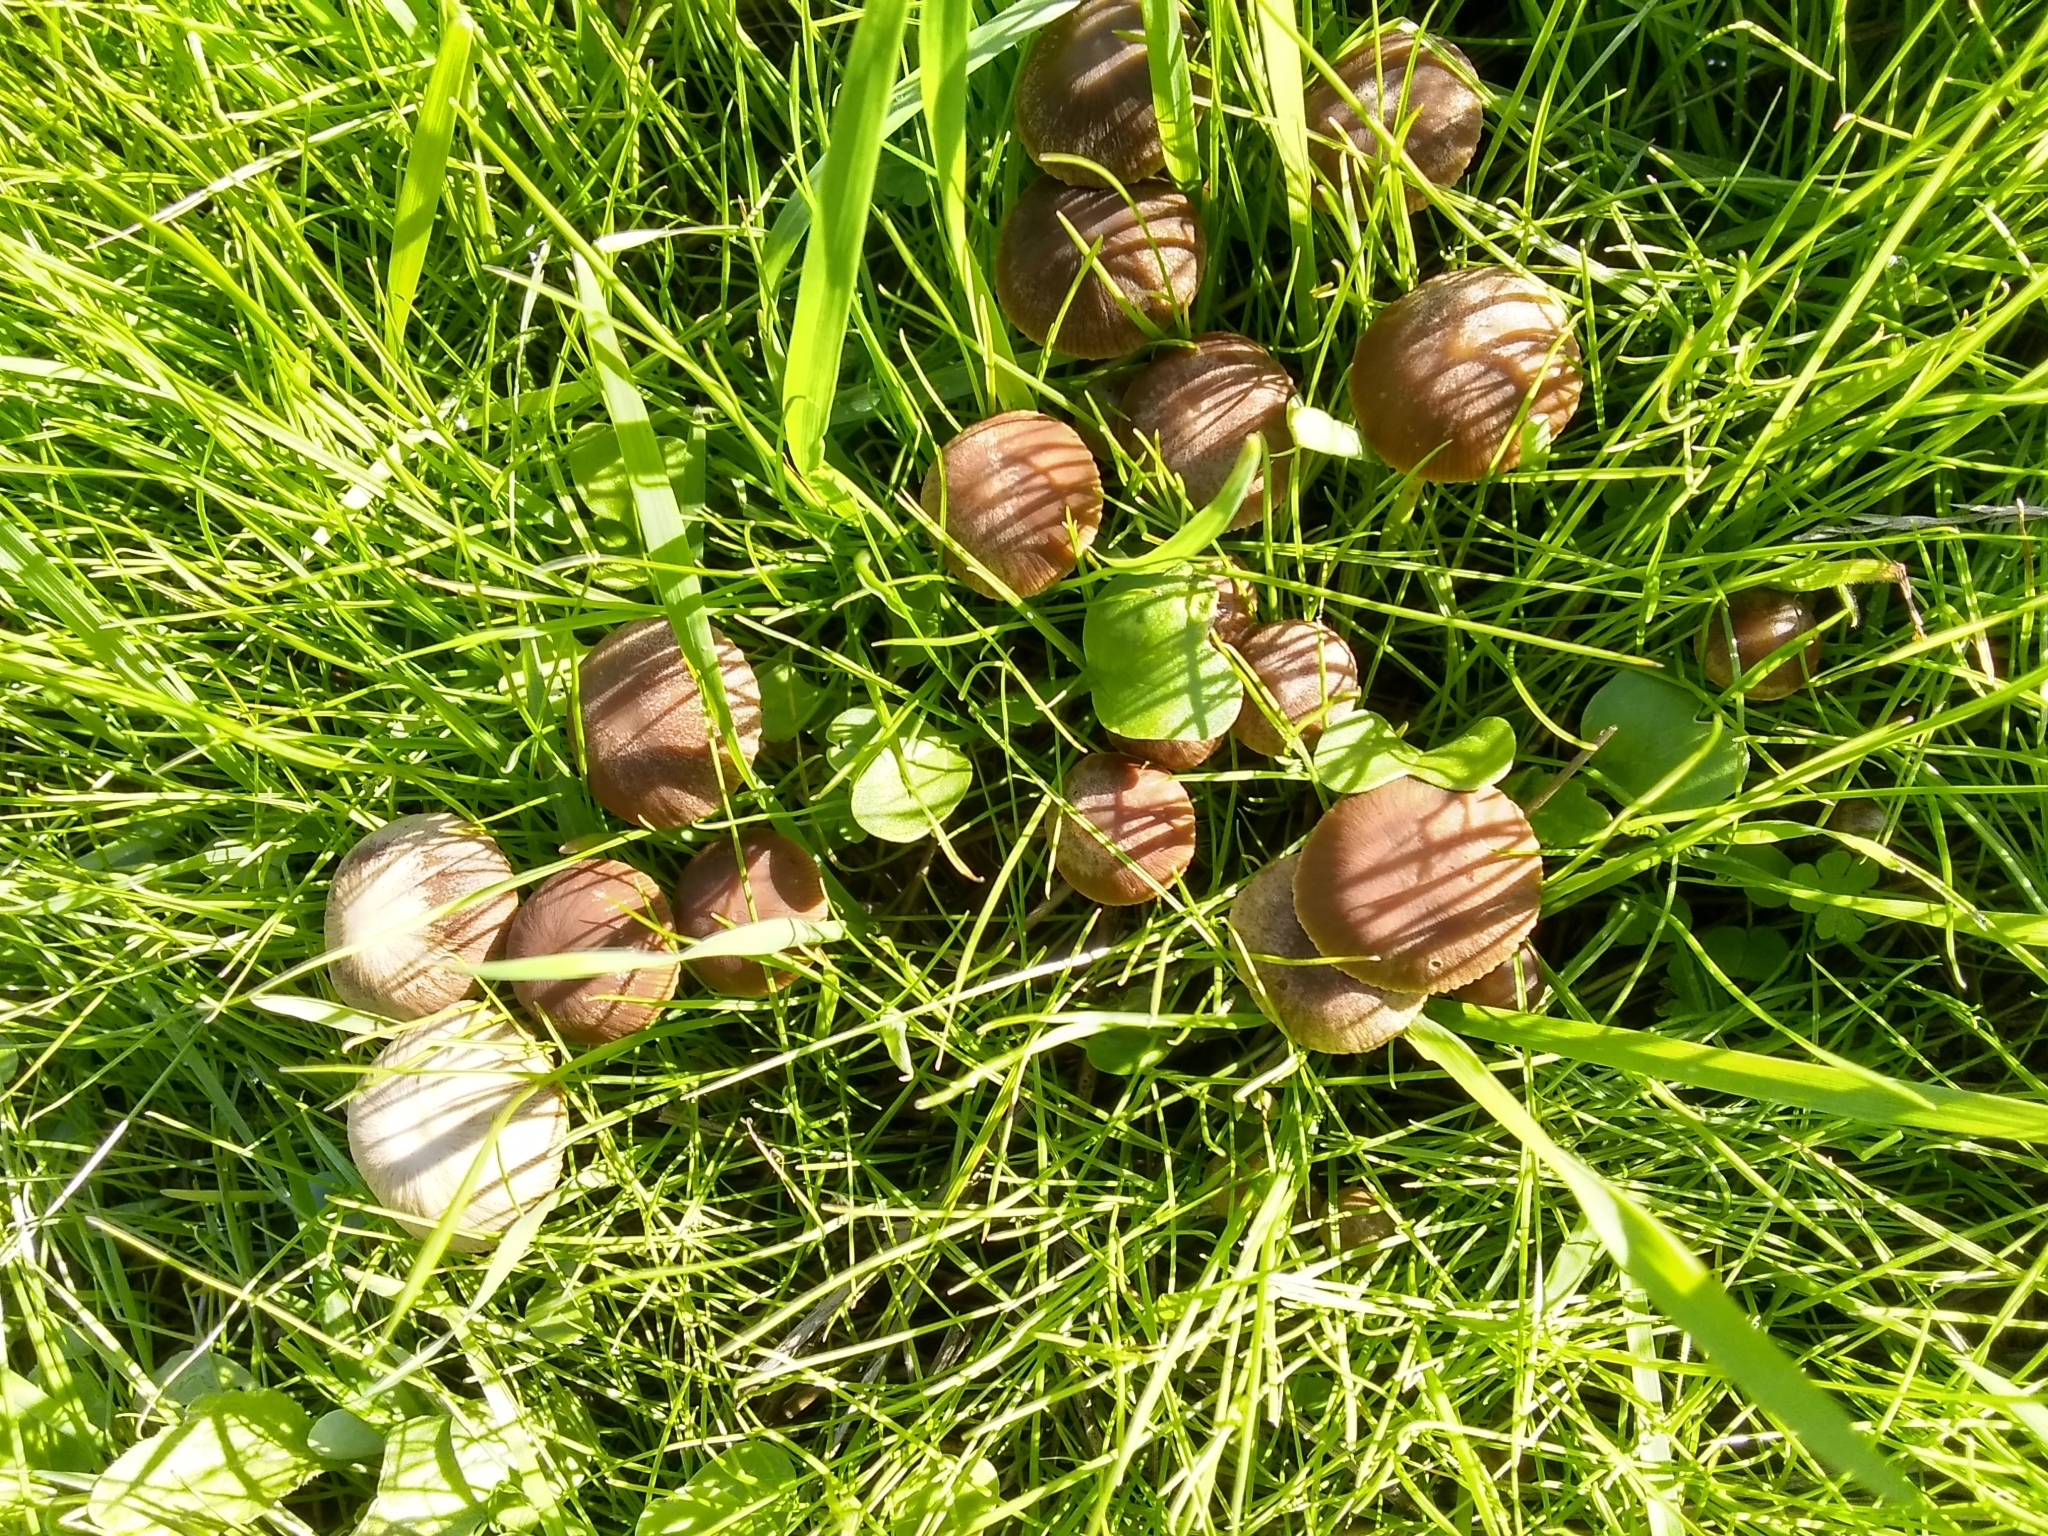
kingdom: Fungi
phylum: Basidiomycota
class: Agaricomycetes
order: Agaricales
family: Psathyrellaceae
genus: Psathyrella
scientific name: Psathyrella corrugis
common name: Red edge brittlestem
